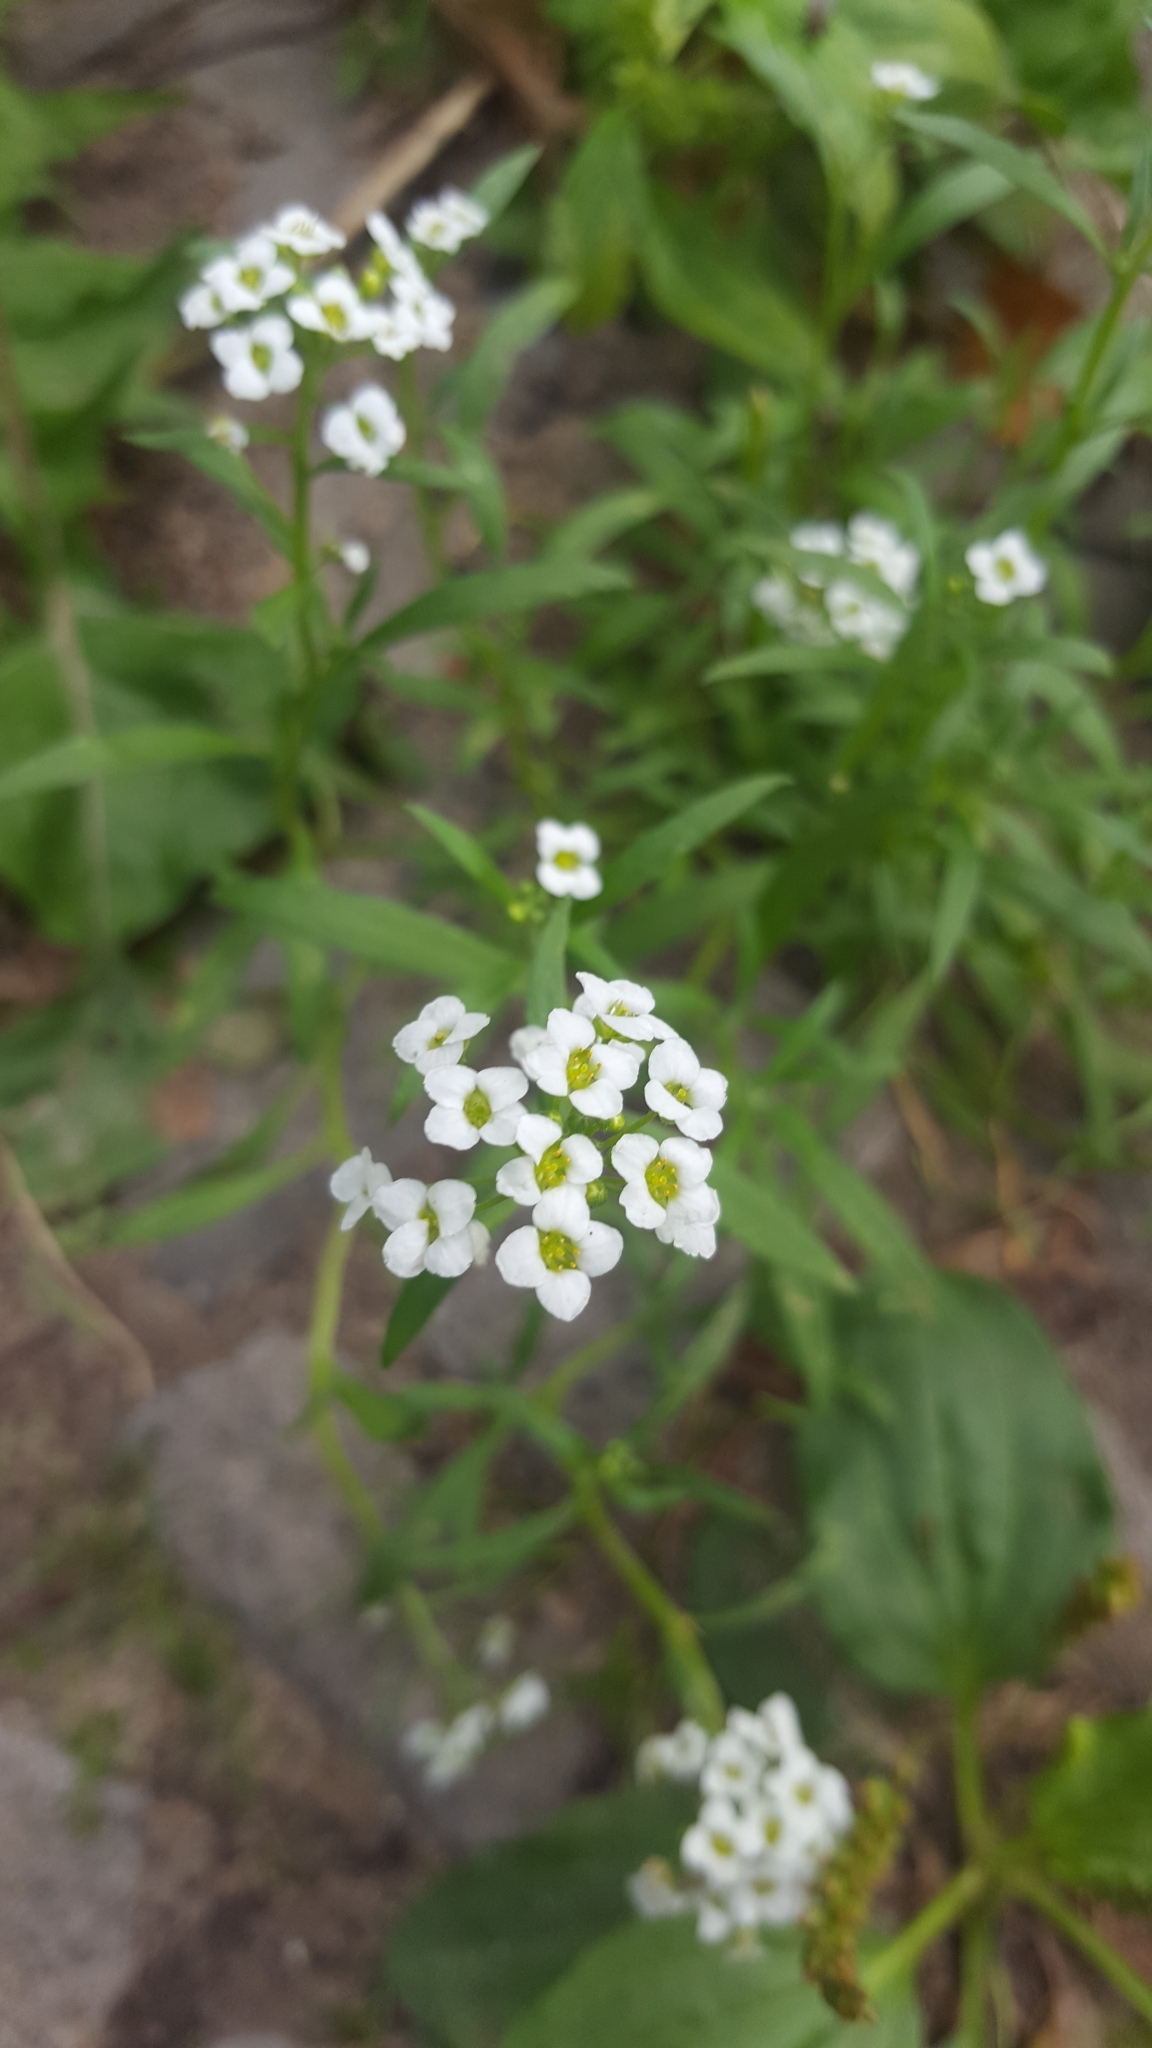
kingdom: Plantae
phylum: Tracheophyta
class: Magnoliopsida
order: Brassicales
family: Brassicaceae
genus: Lobularia
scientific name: Lobularia maritima
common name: Sweet alison
